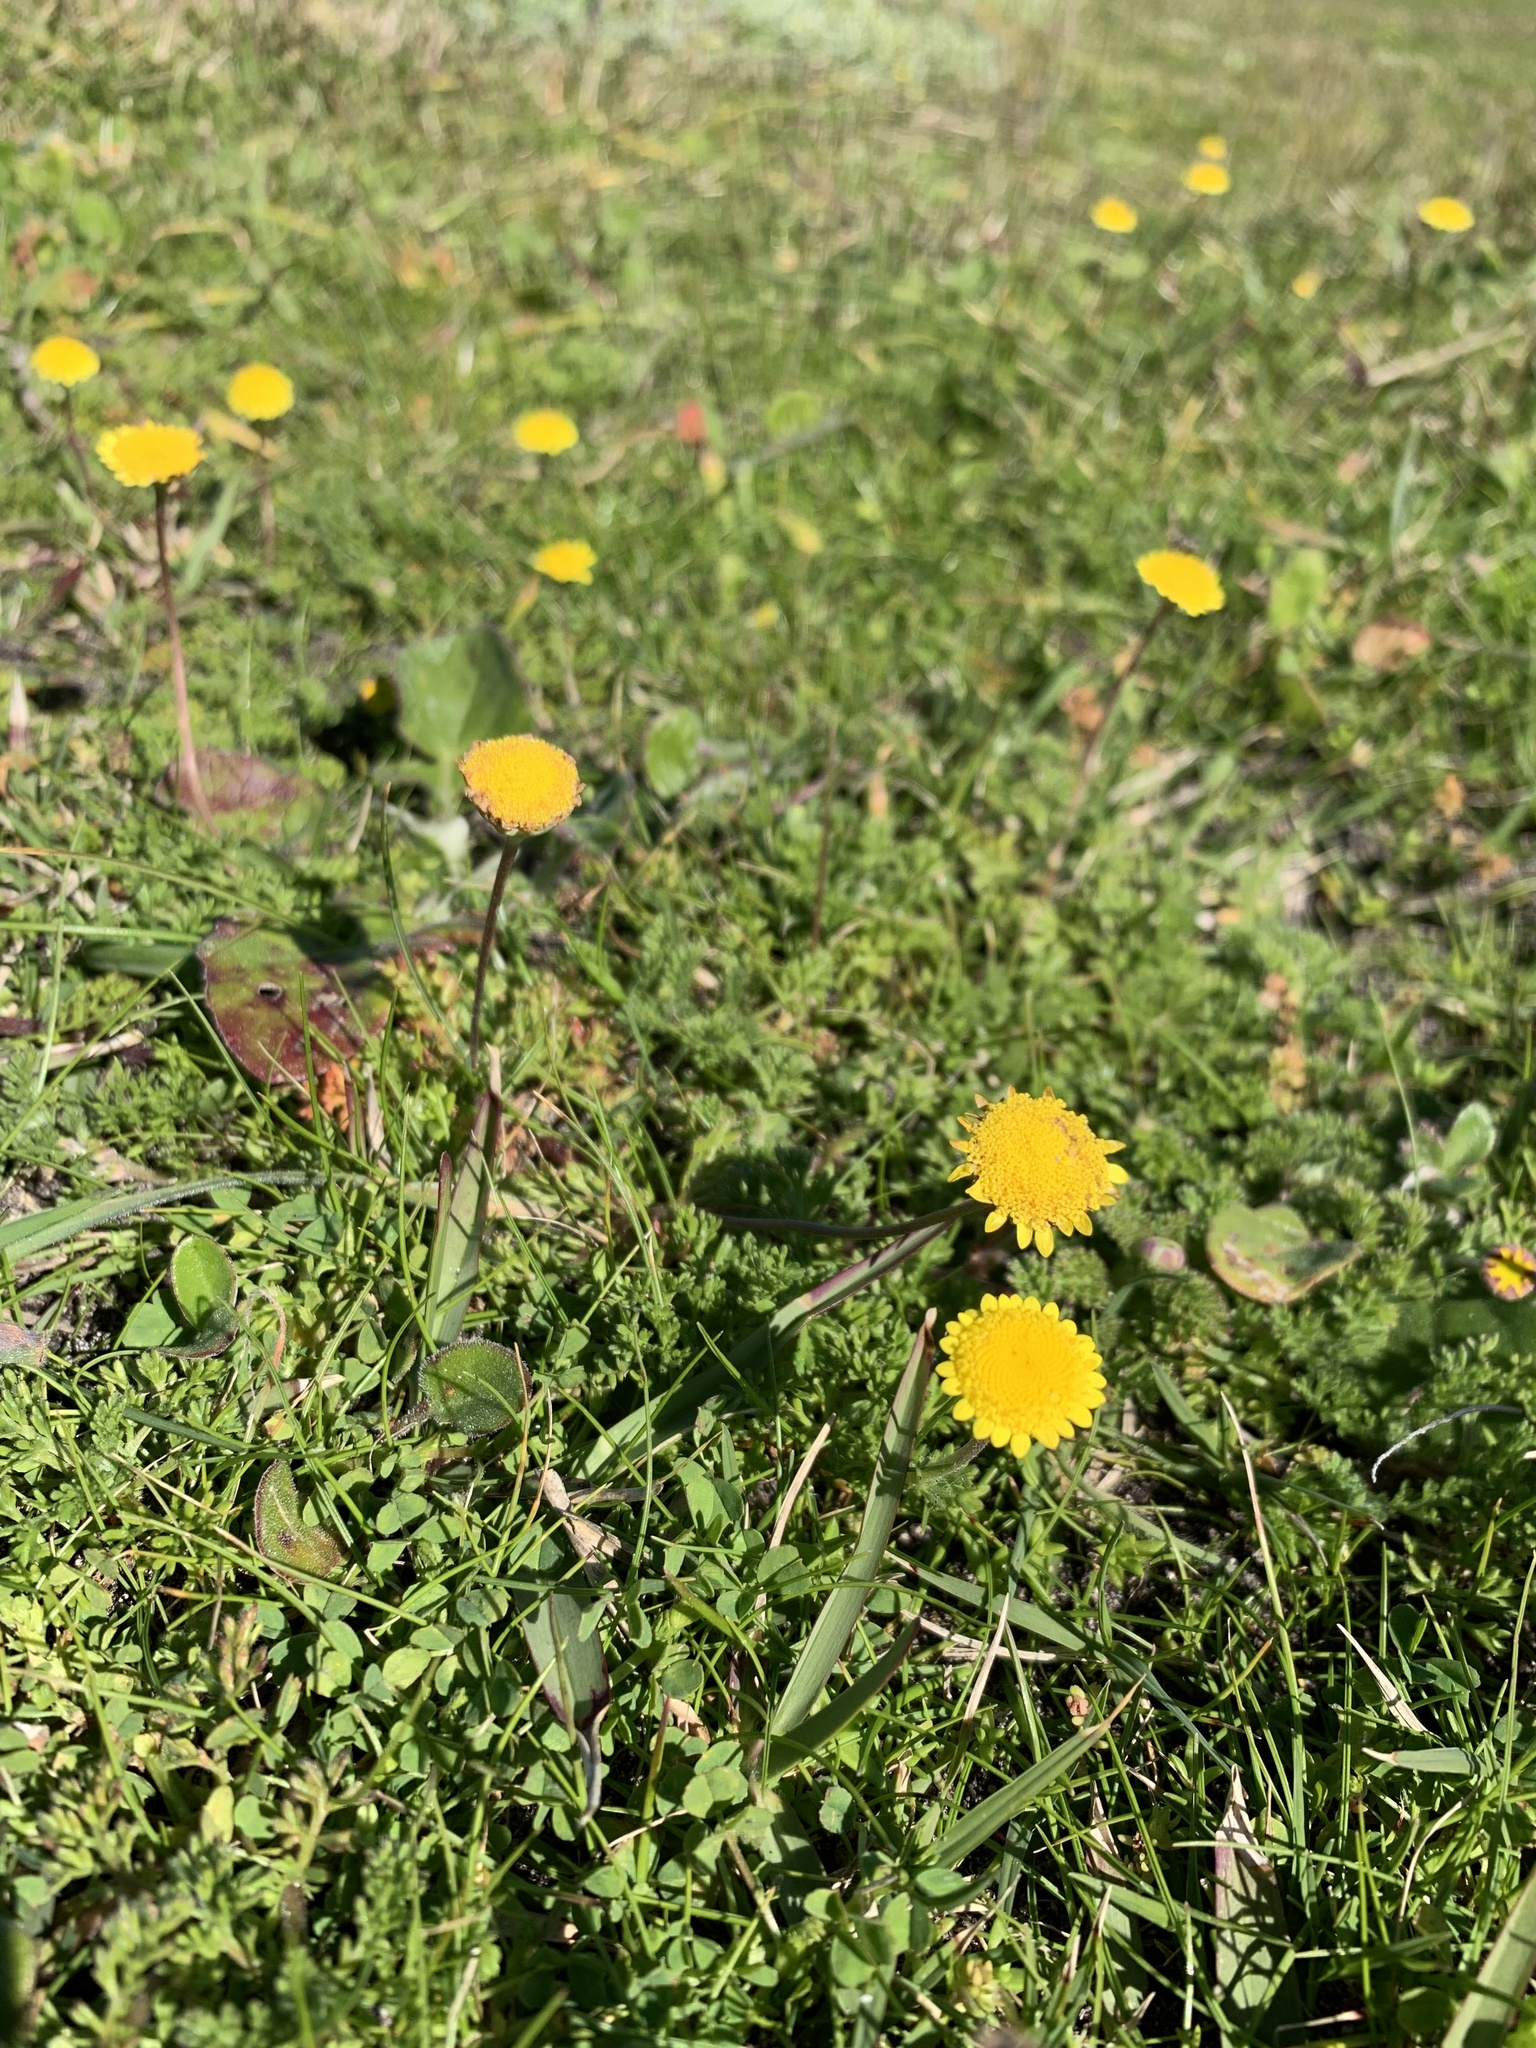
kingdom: Plantae
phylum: Tracheophyta
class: Magnoliopsida
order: Asterales
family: Asteraceae
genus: Cotula
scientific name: Cotula pruinosa
